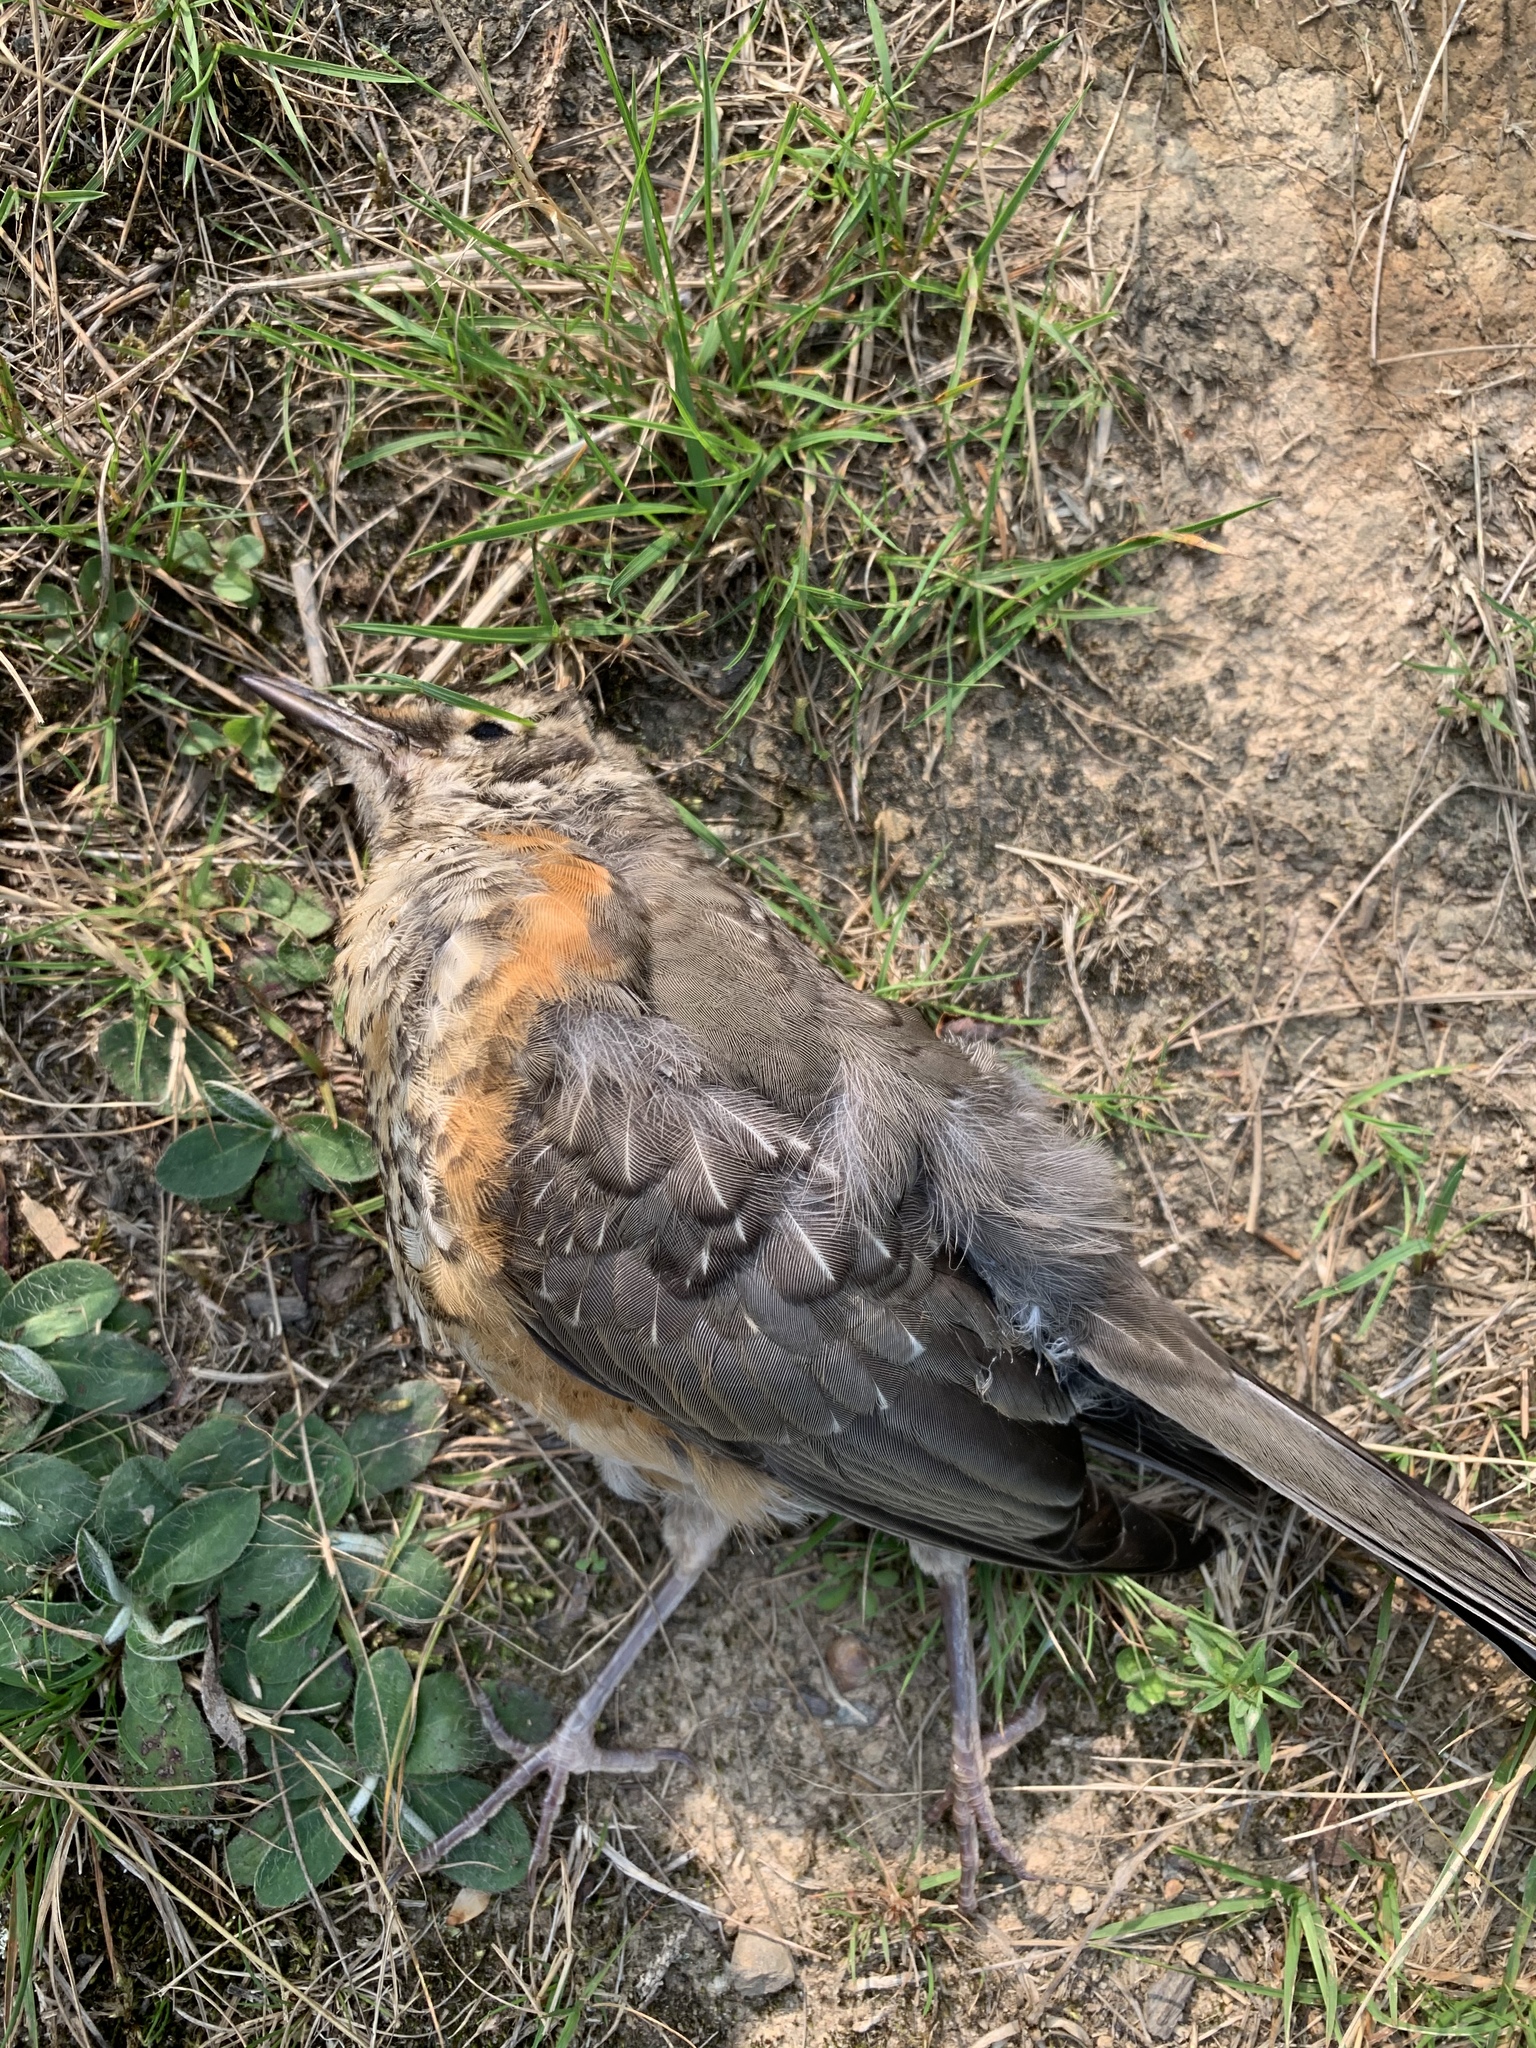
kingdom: Animalia
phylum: Chordata
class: Aves
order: Passeriformes
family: Turdidae
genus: Turdus
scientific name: Turdus migratorius
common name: American robin
